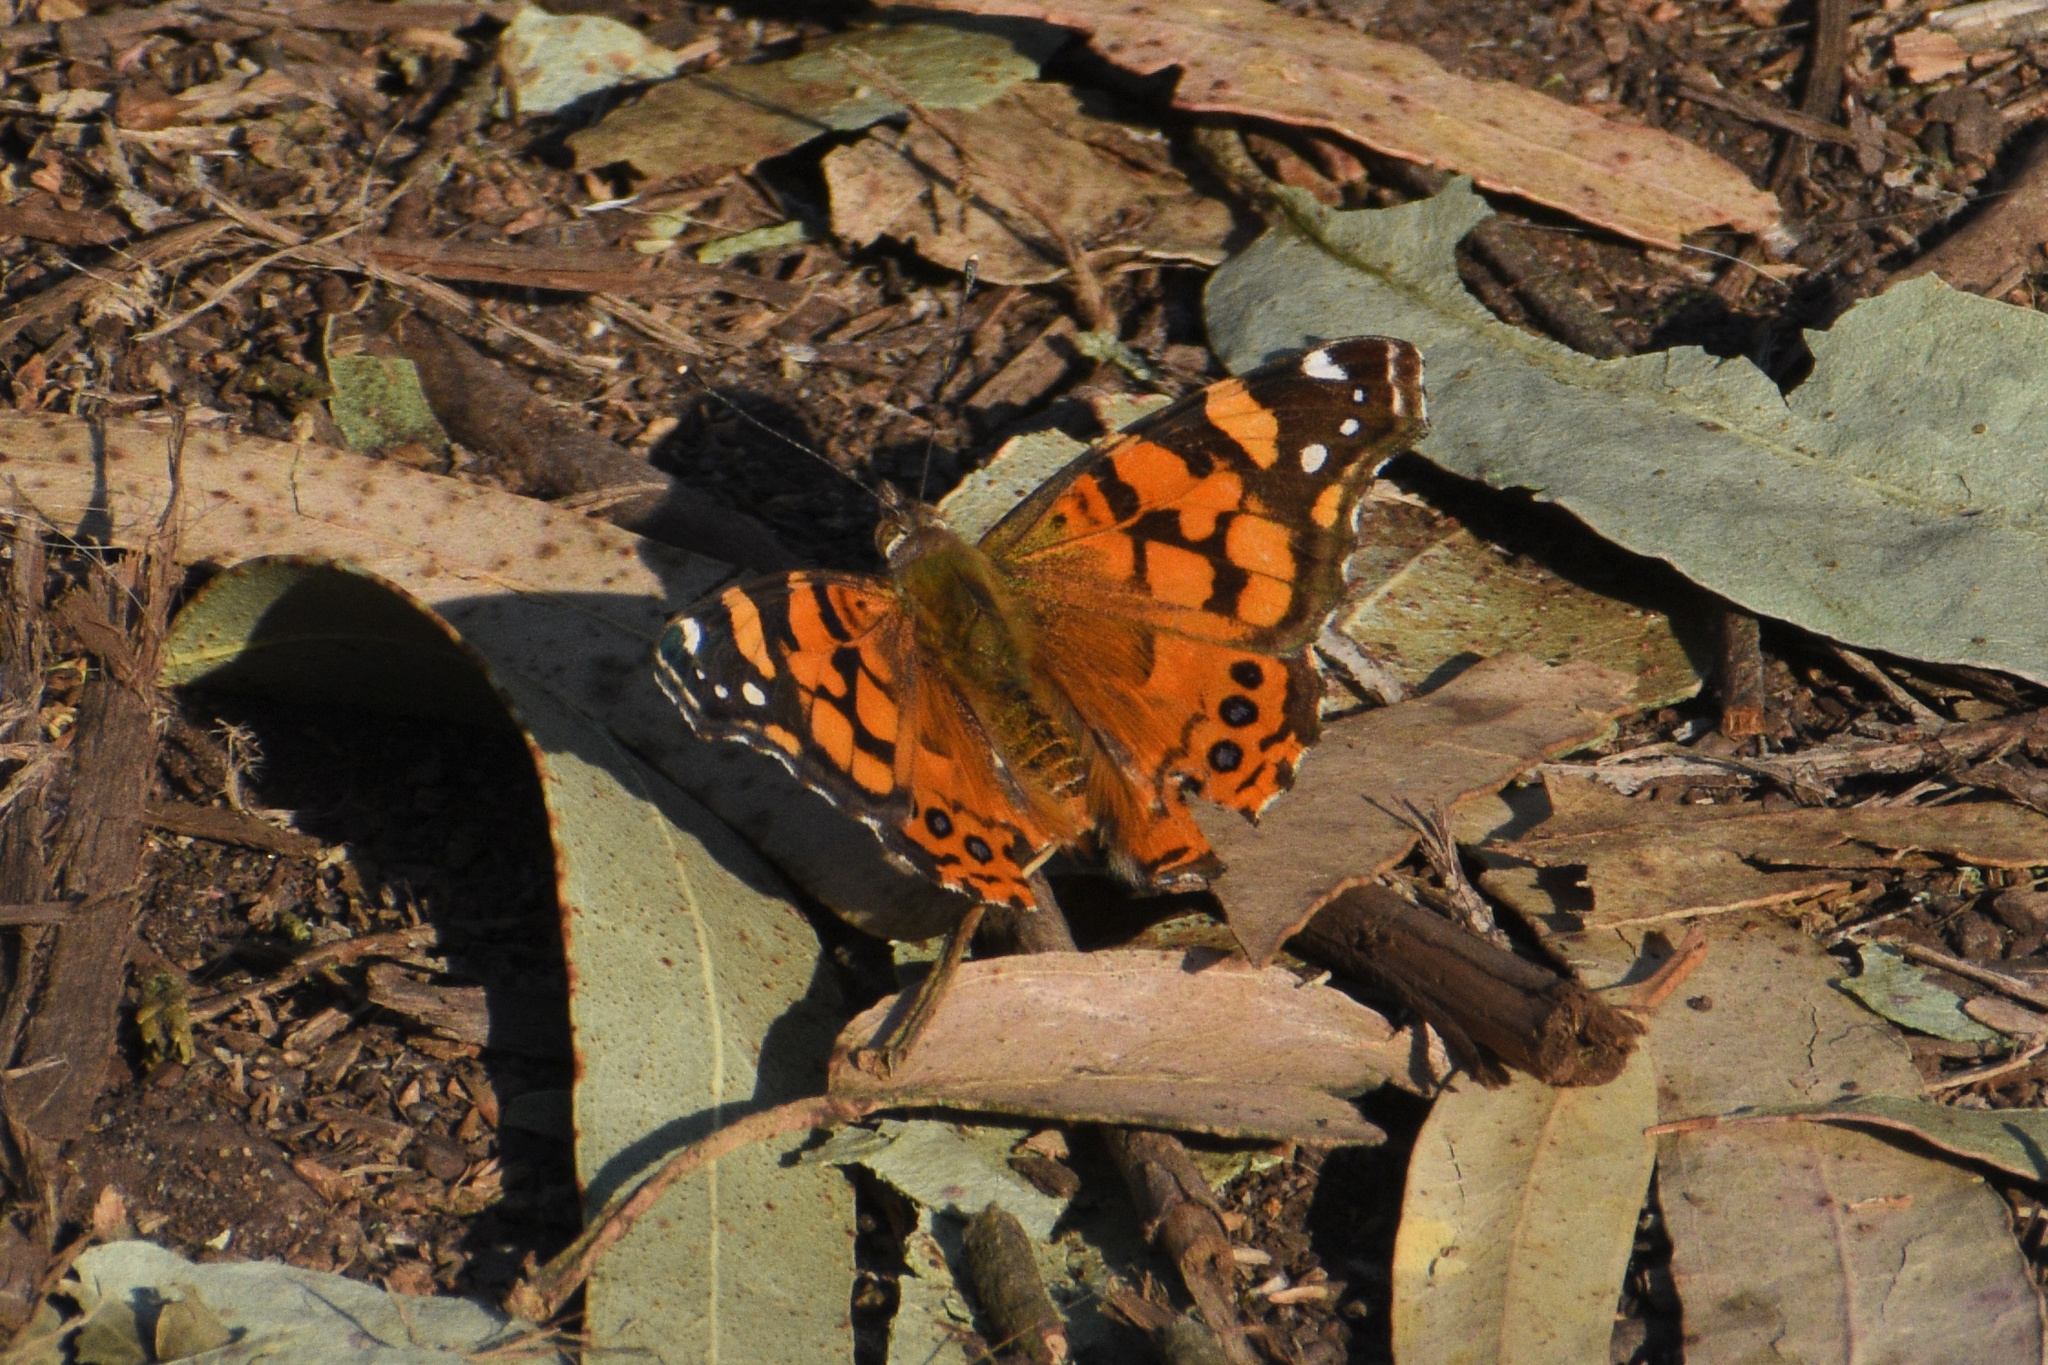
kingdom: Animalia
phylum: Arthropoda
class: Insecta
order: Lepidoptera
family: Nymphalidae
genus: Vanessa
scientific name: Vanessa annabella
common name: West coast lady
